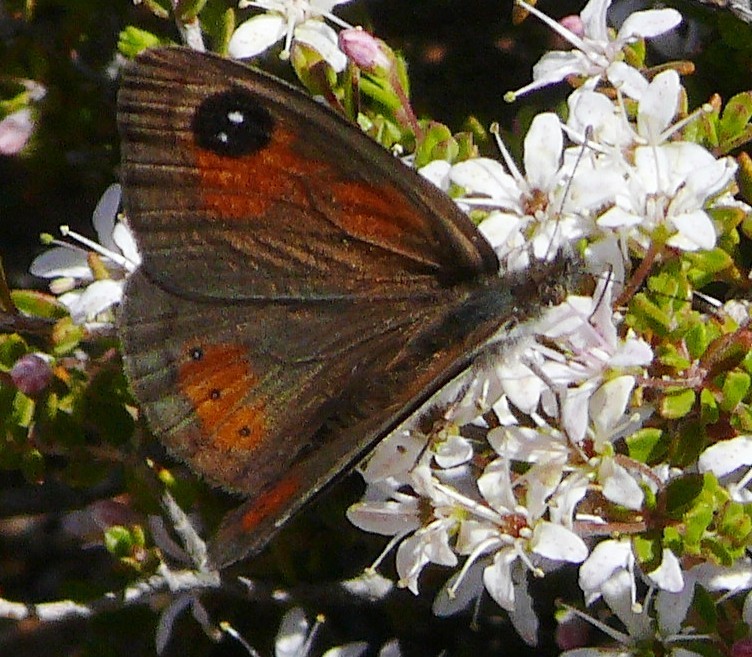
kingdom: Animalia
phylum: Arthropoda
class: Insecta
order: Lepidoptera
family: Nymphalidae
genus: Pseudonympha
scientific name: Pseudonympha trimenii
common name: Trimen’s brown
